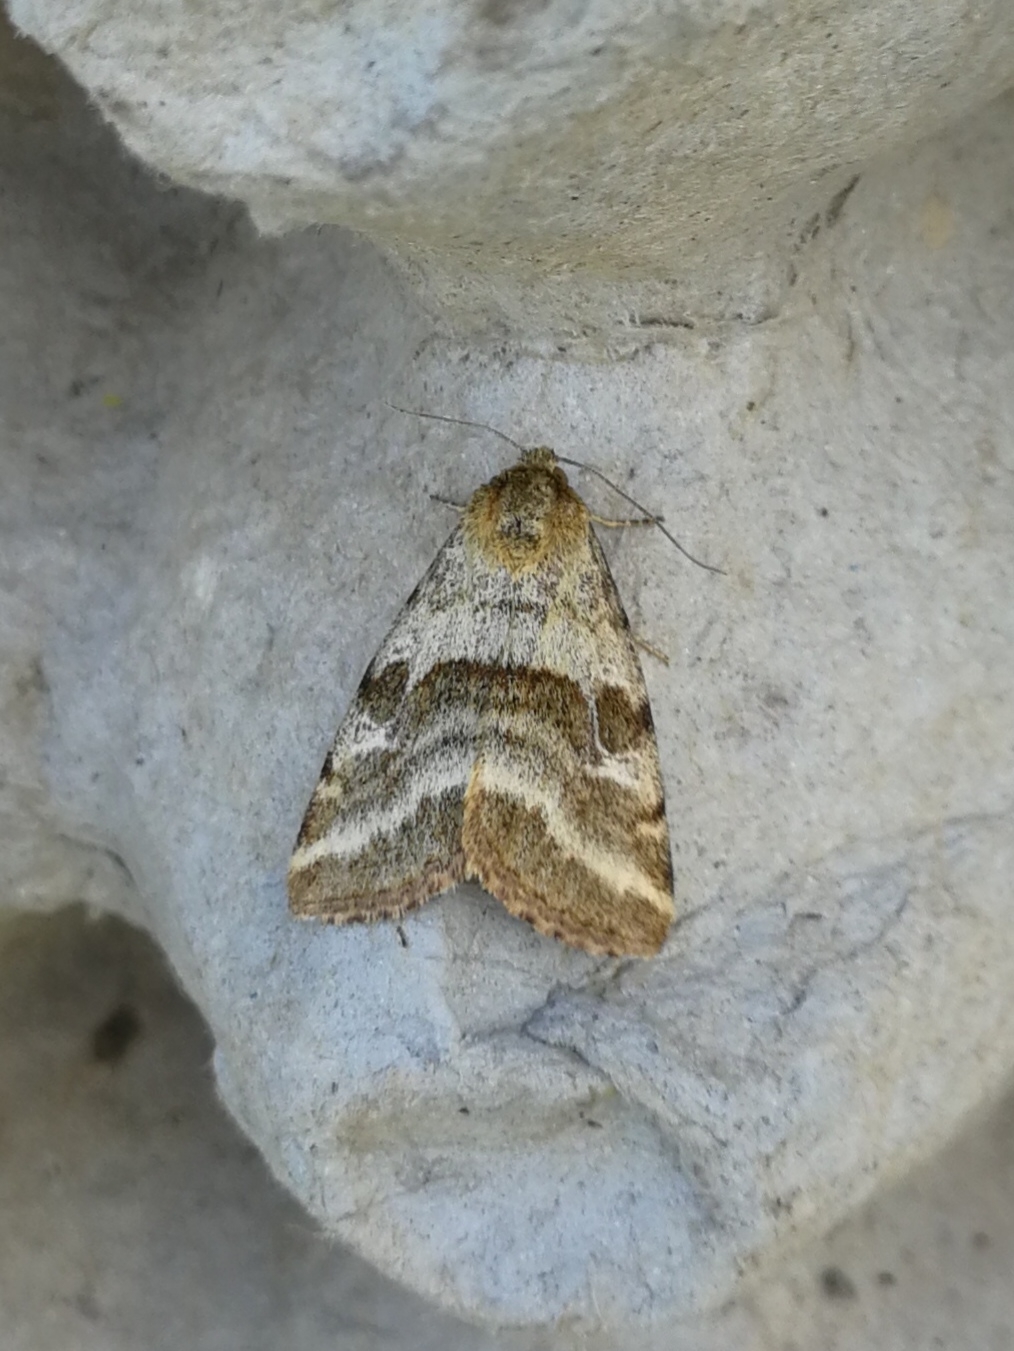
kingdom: Animalia
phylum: Arthropoda
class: Insecta
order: Lepidoptera
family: Noctuidae
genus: Synthymia
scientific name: Synthymia fixa
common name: Goldwing
